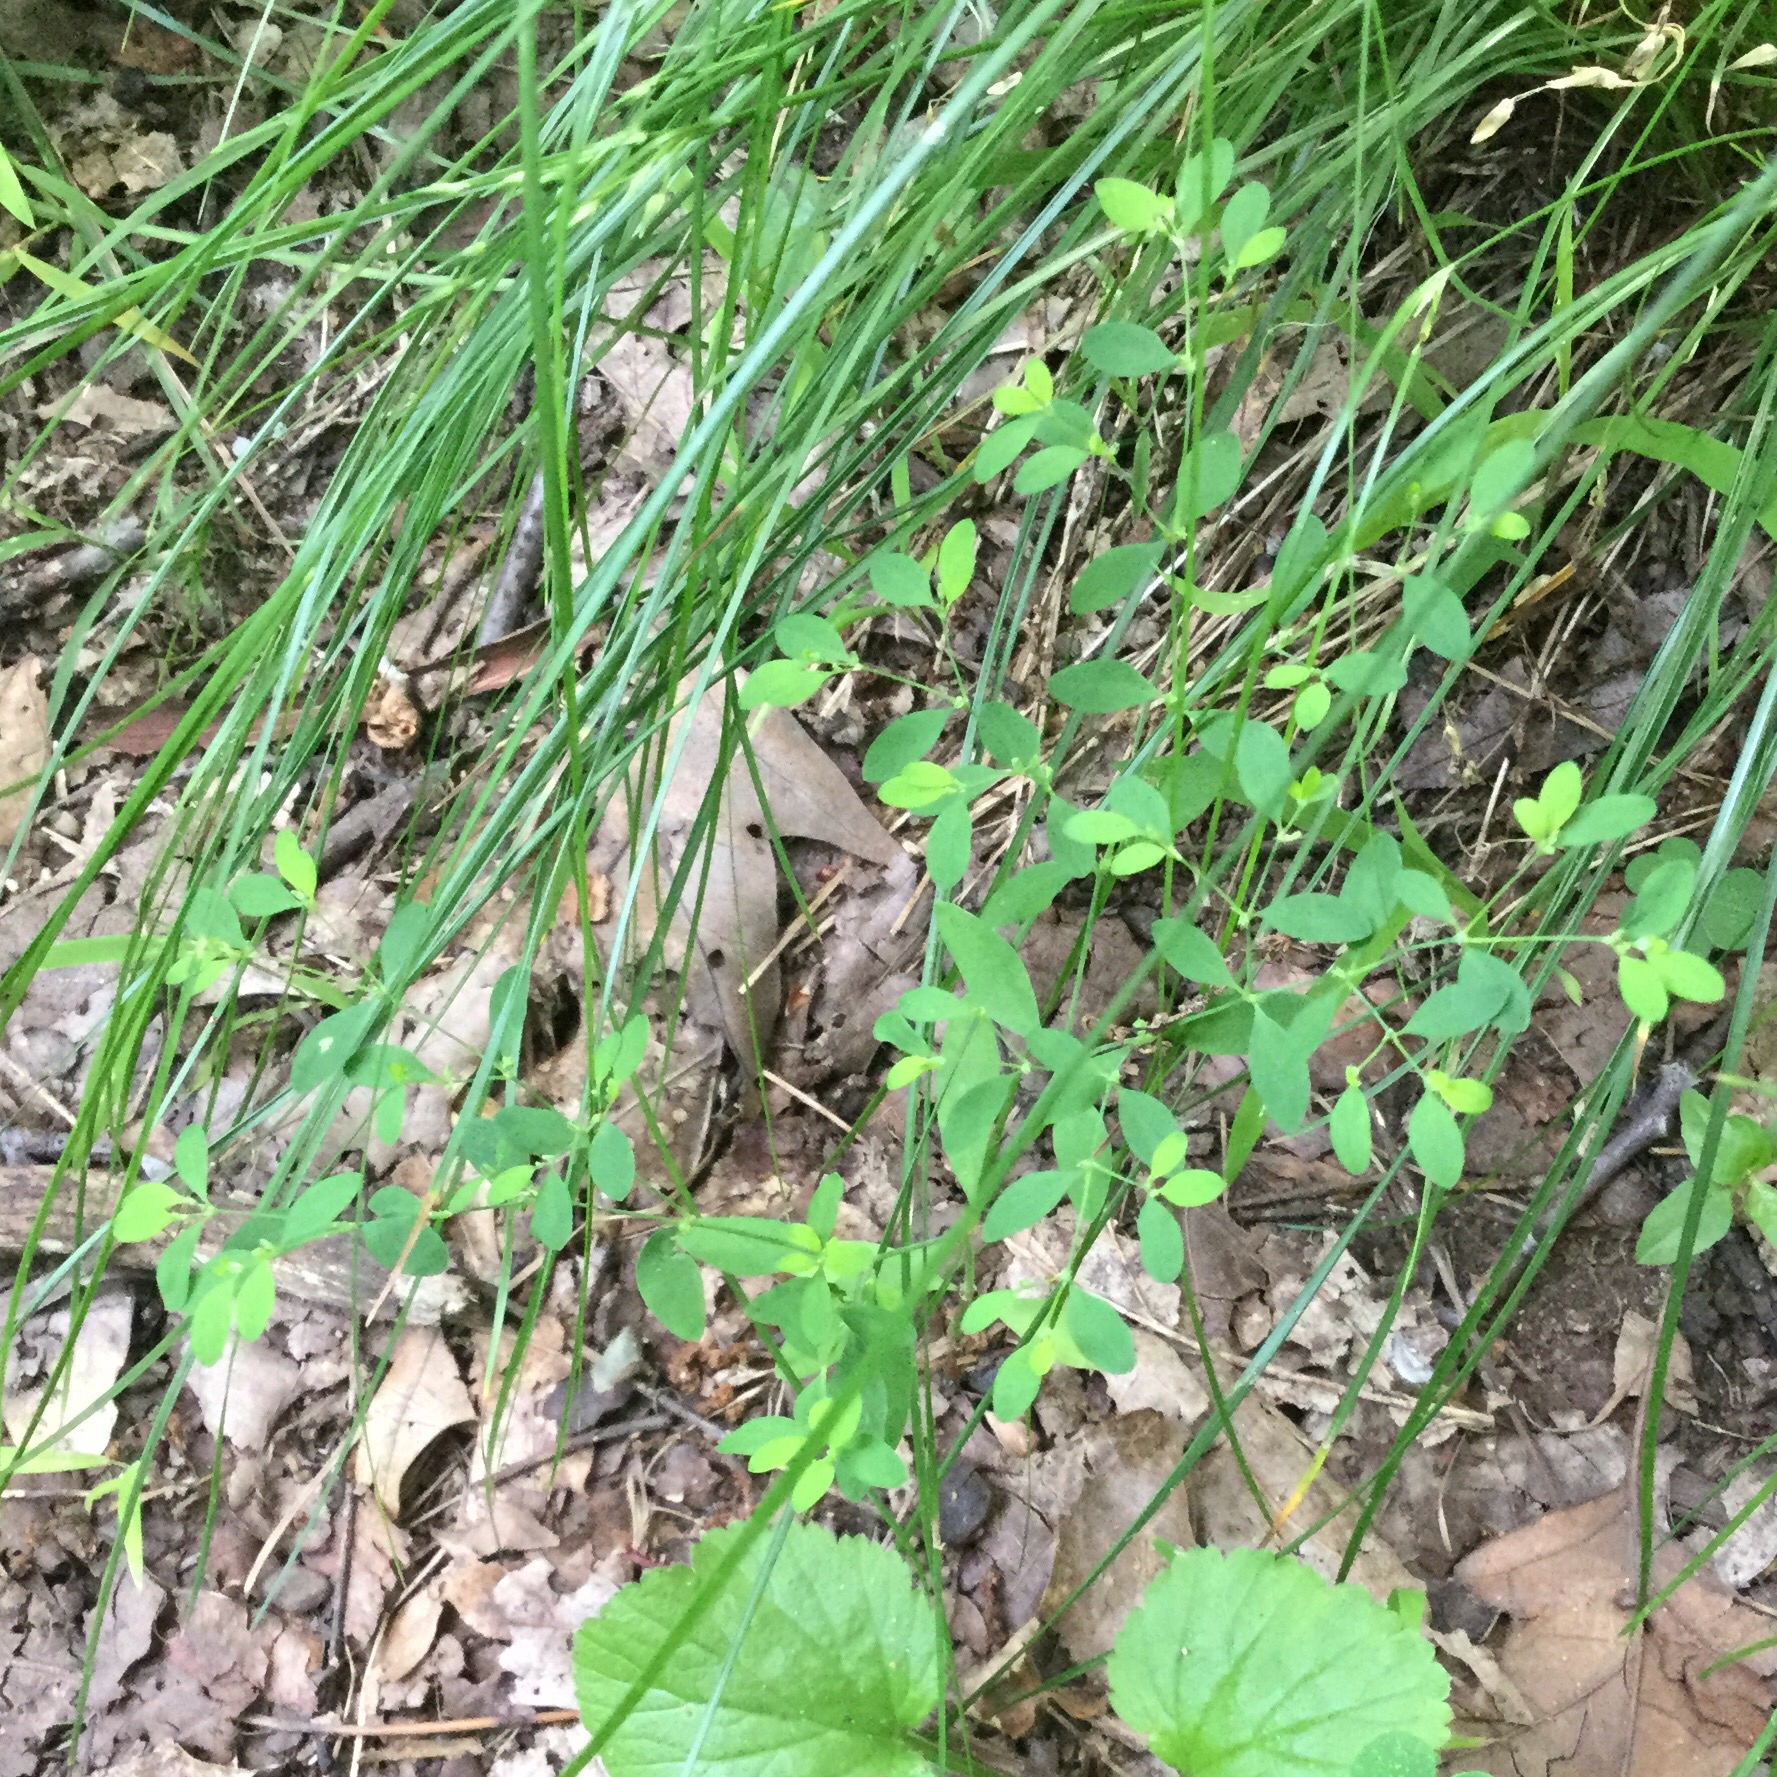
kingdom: Plantae
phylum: Tracheophyta
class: Magnoliopsida
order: Caryophyllales
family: Caryophyllaceae
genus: Paronychia
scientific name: Paronychia canadensis
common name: Canada forked nailwort
